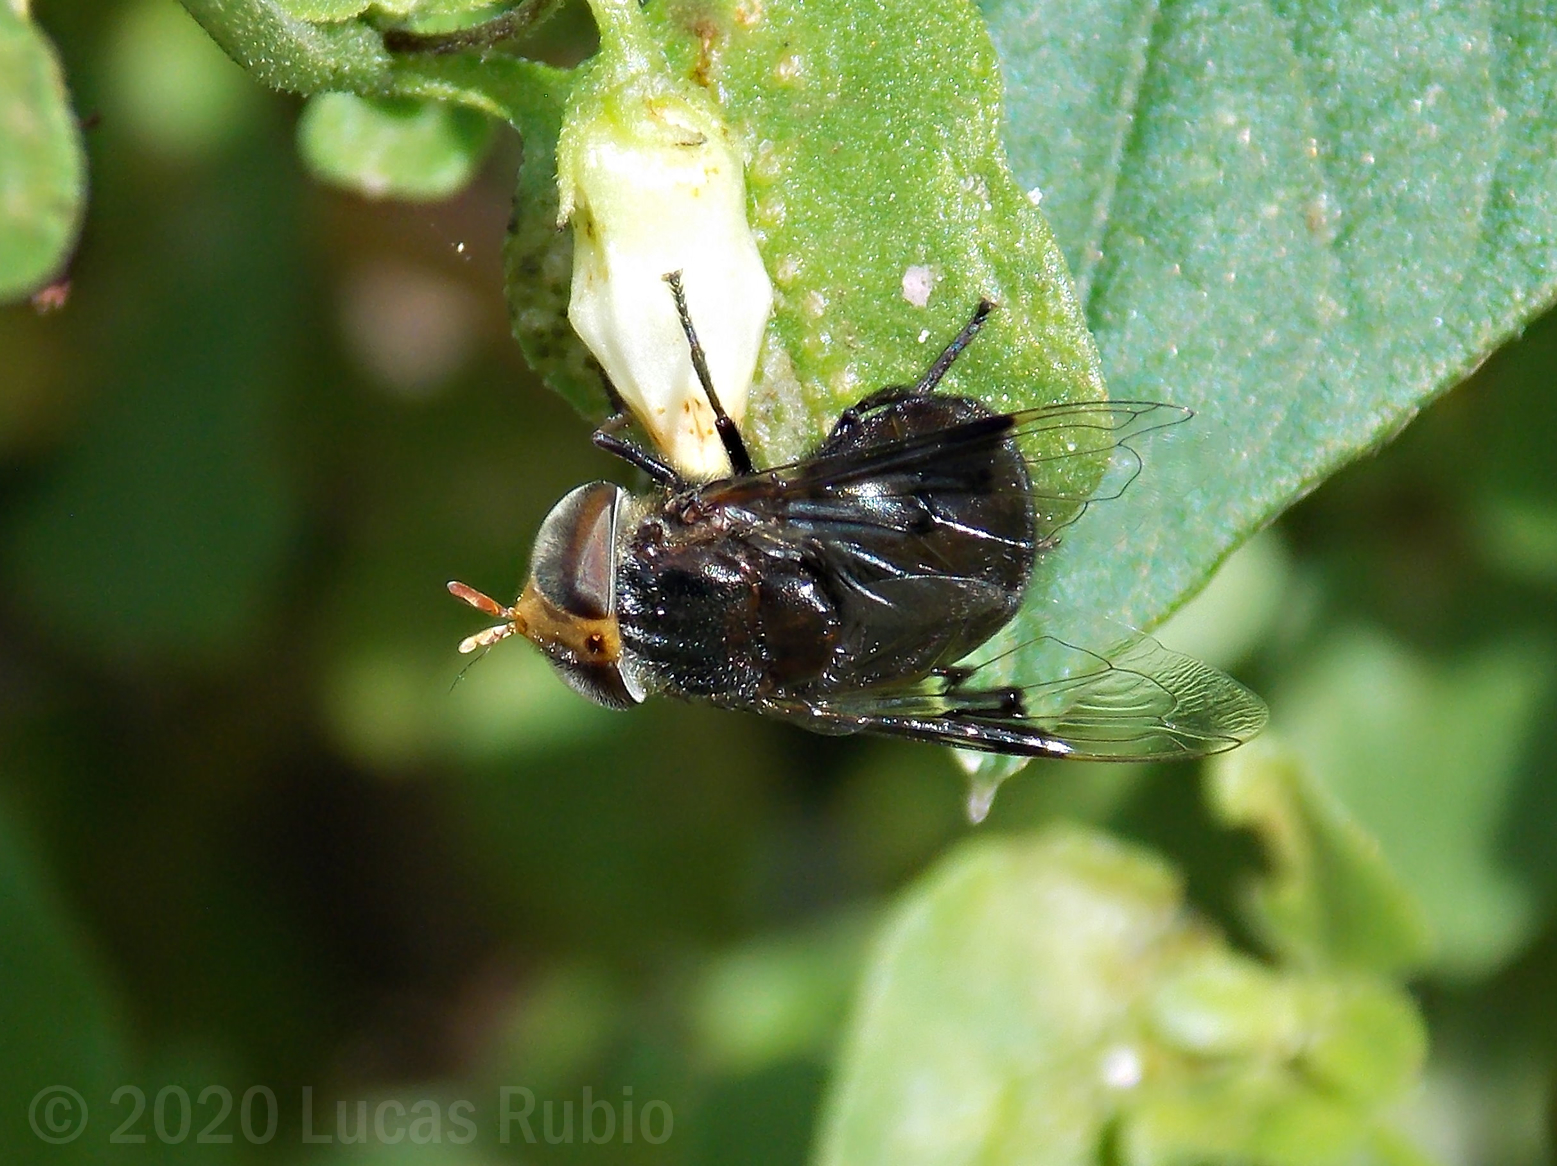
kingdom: Animalia
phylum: Arthropoda
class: Insecta
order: Diptera
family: Syrphidae
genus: Copestylum
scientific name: Copestylum spinigerum
